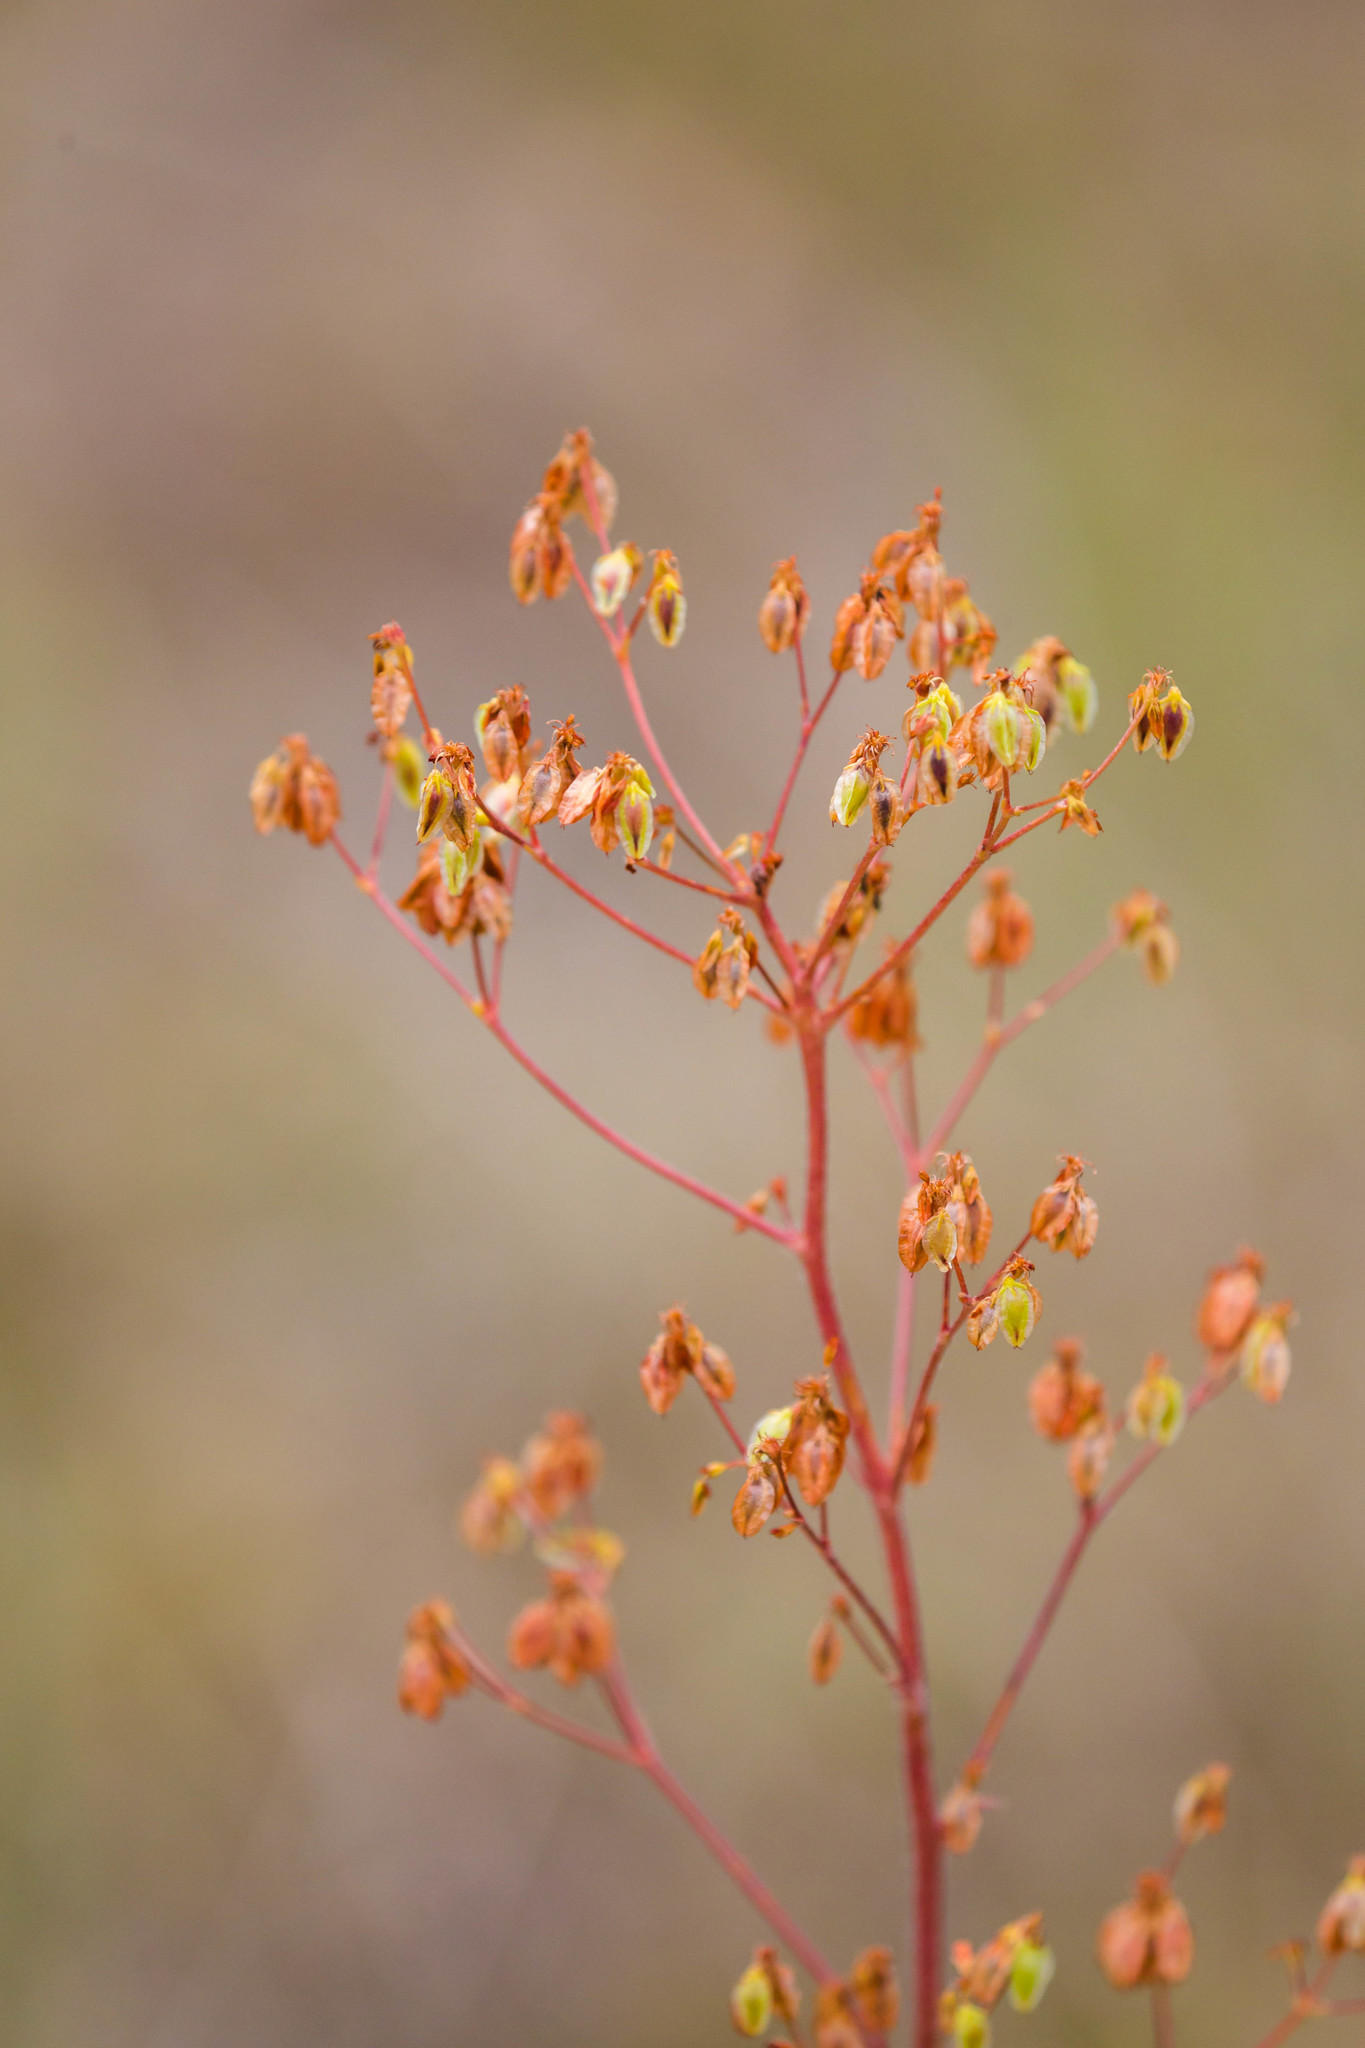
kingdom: Plantae
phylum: Tracheophyta
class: Magnoliopsida
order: Caryophyllales
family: Polygonaceae
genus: Eriogonum
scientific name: Eriogonum alatum
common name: Winged eriogonum
